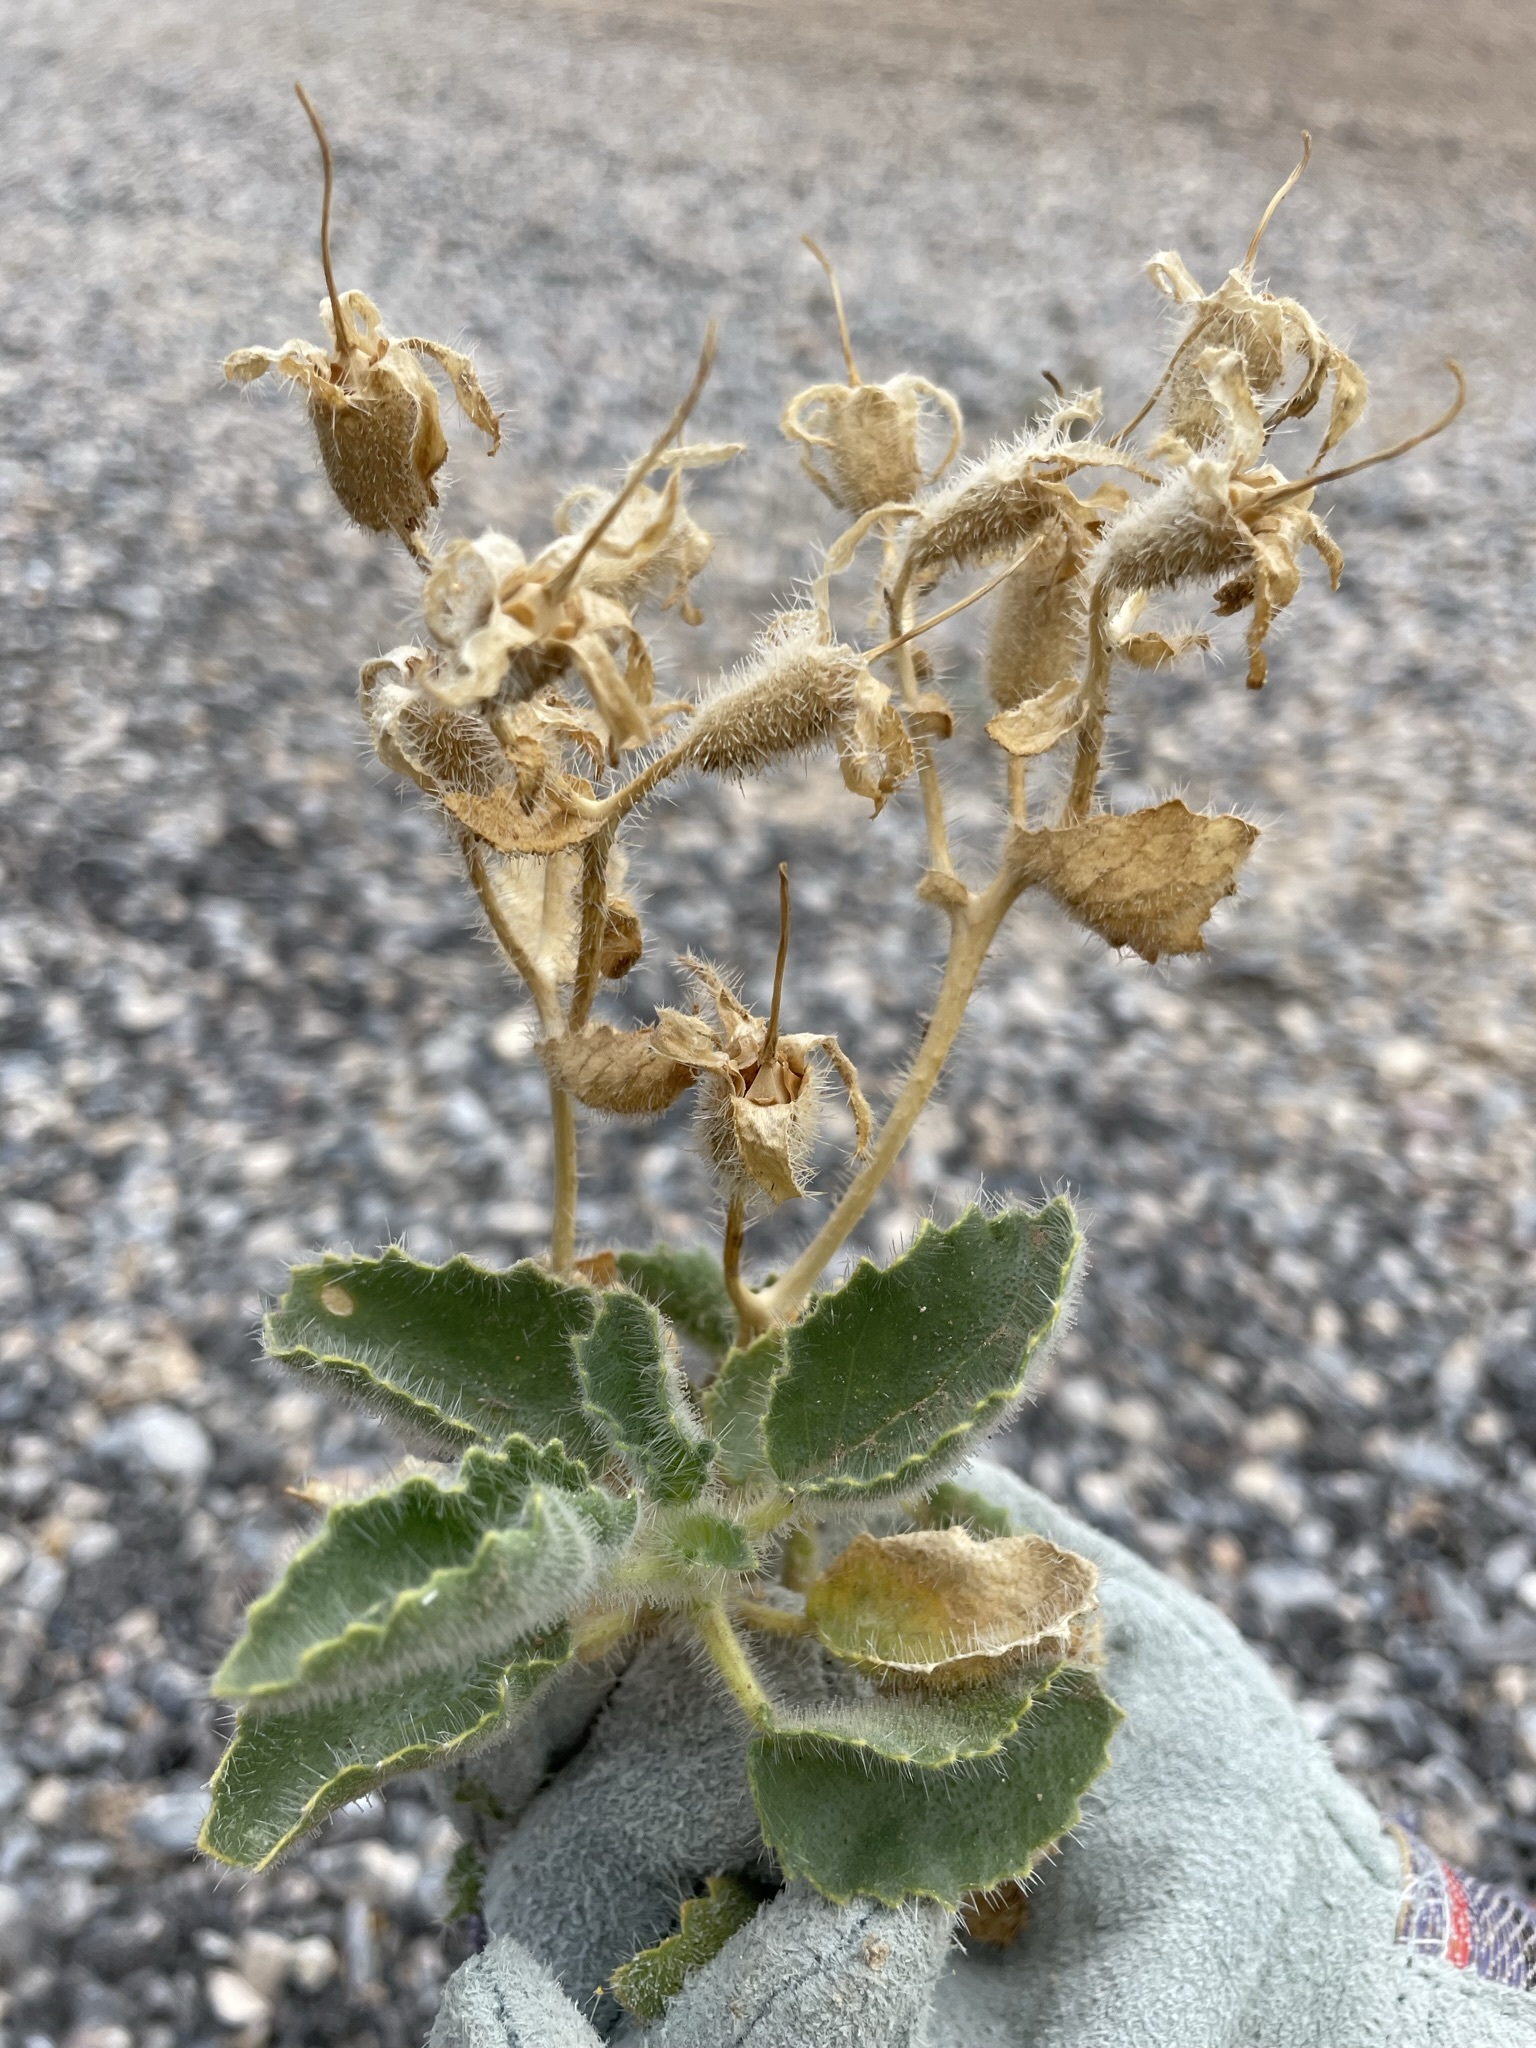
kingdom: Plantae
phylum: Tracheophyta
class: Magnoliopsida
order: Cornales
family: Loasaceae
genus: Eucnide
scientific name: Eucnide urens
